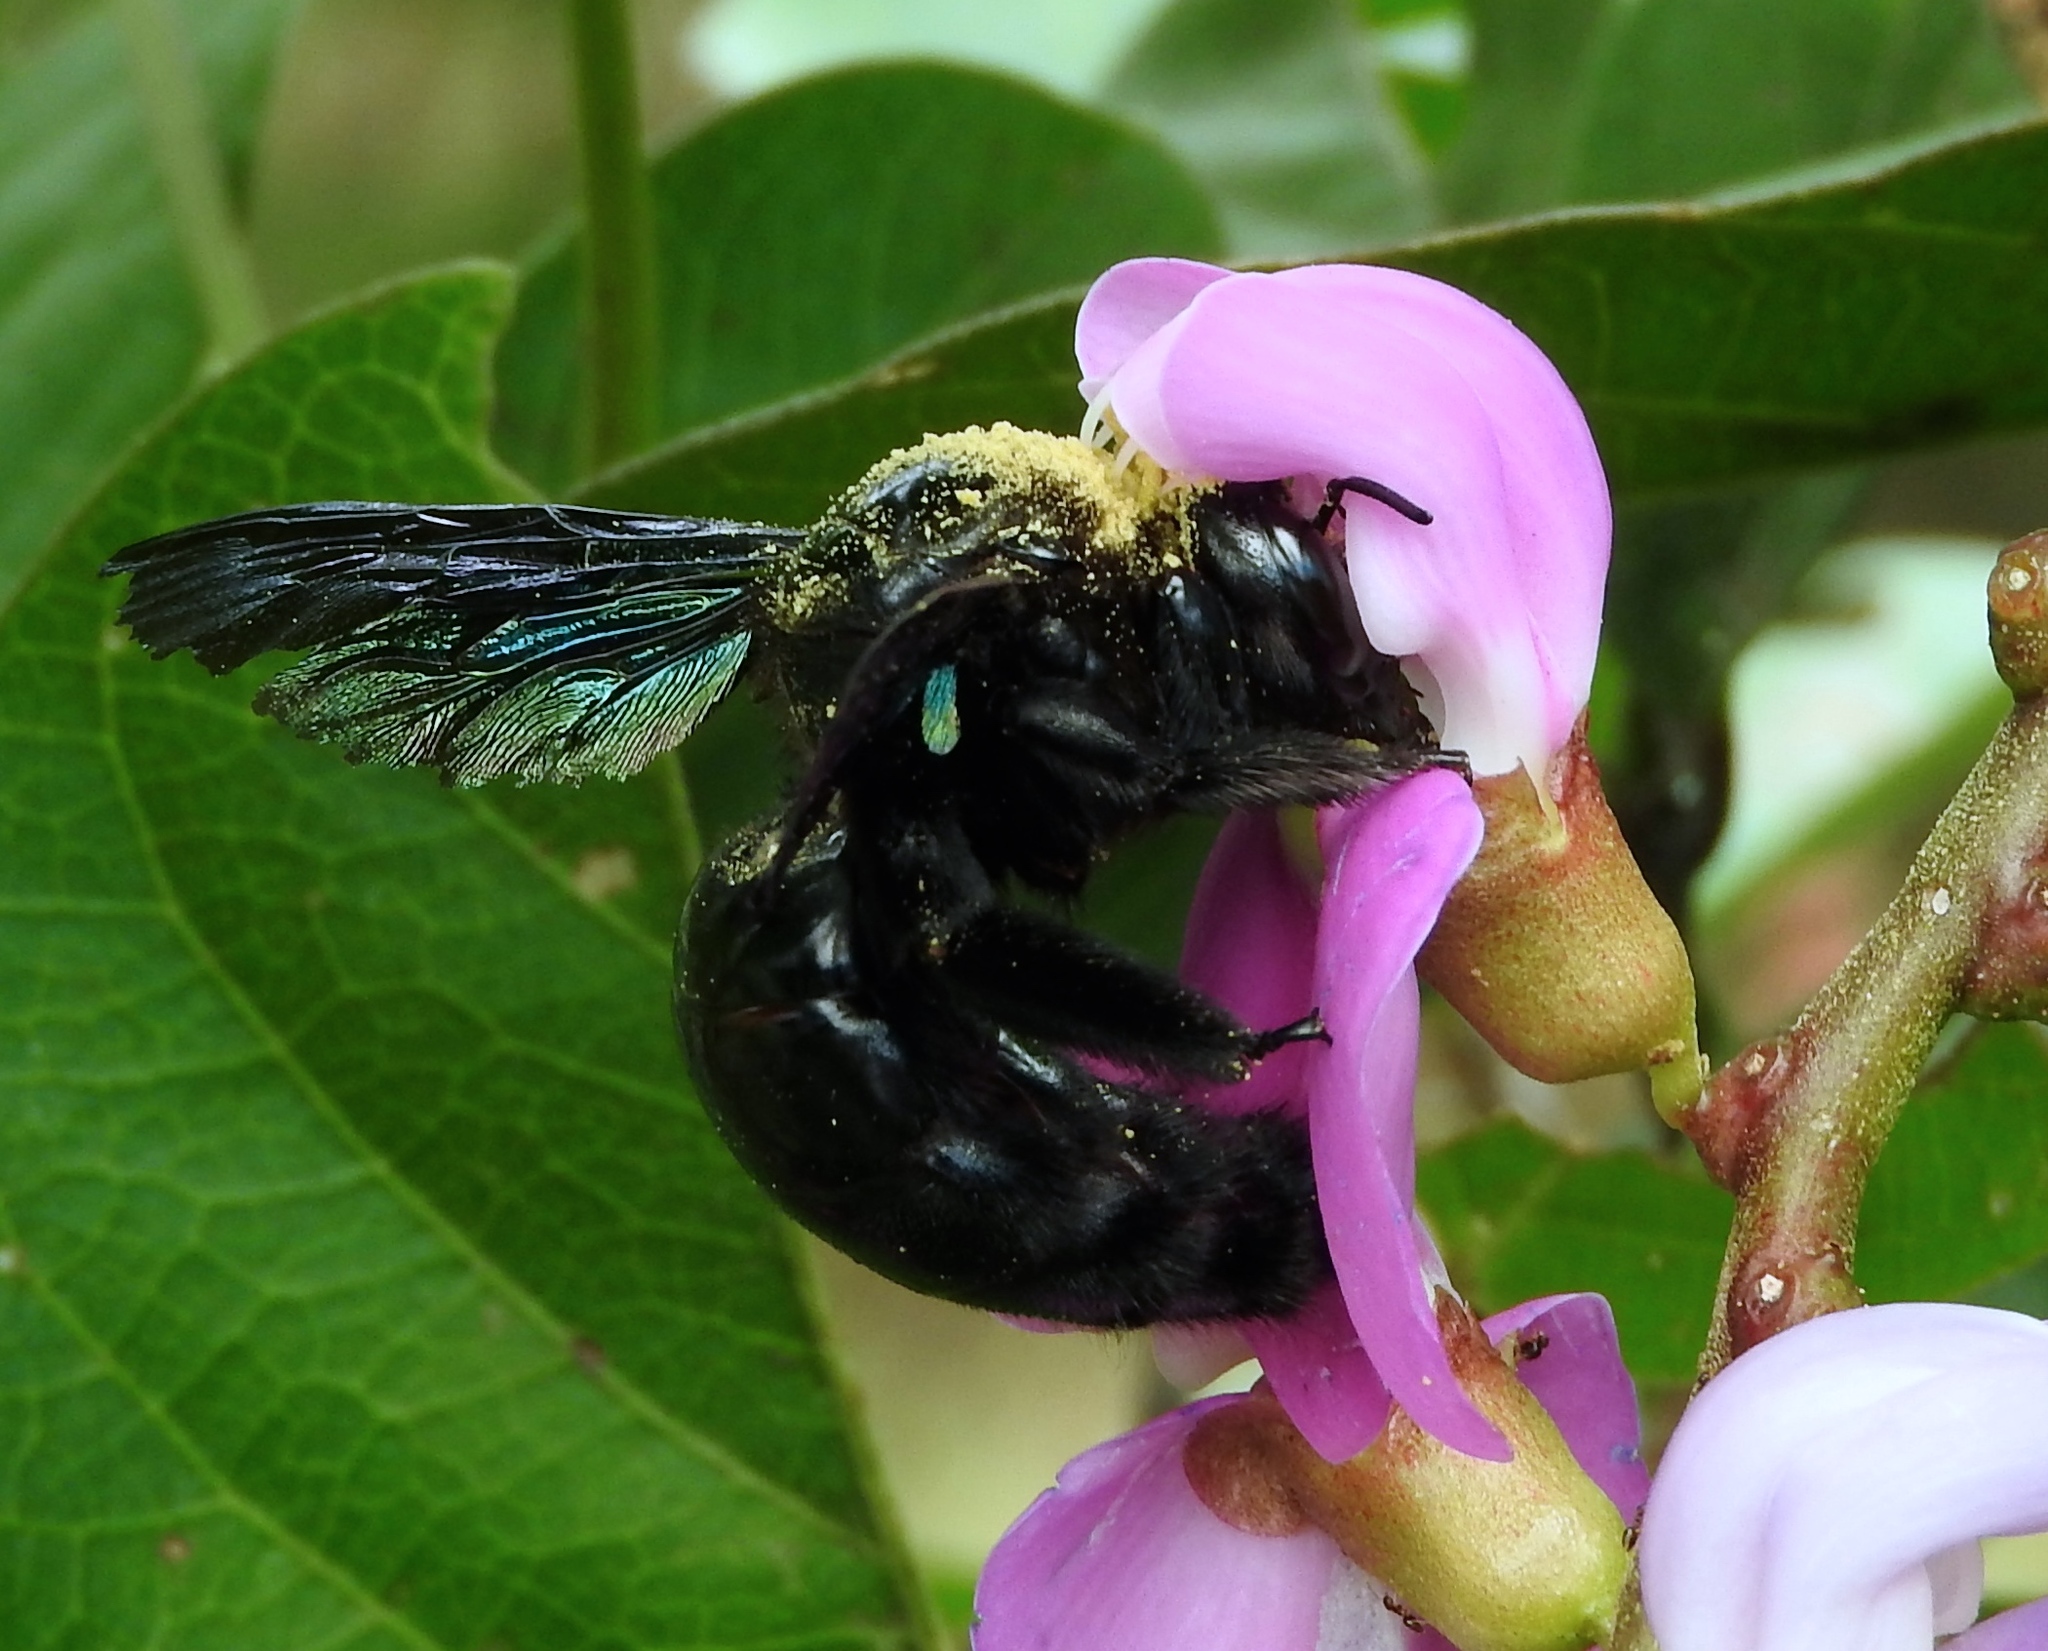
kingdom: Animalia
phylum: Arthropoda
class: Insecta
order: Hymenoptera
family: Apidae
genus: Xylocopa
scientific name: Xylocopa fimbriata
